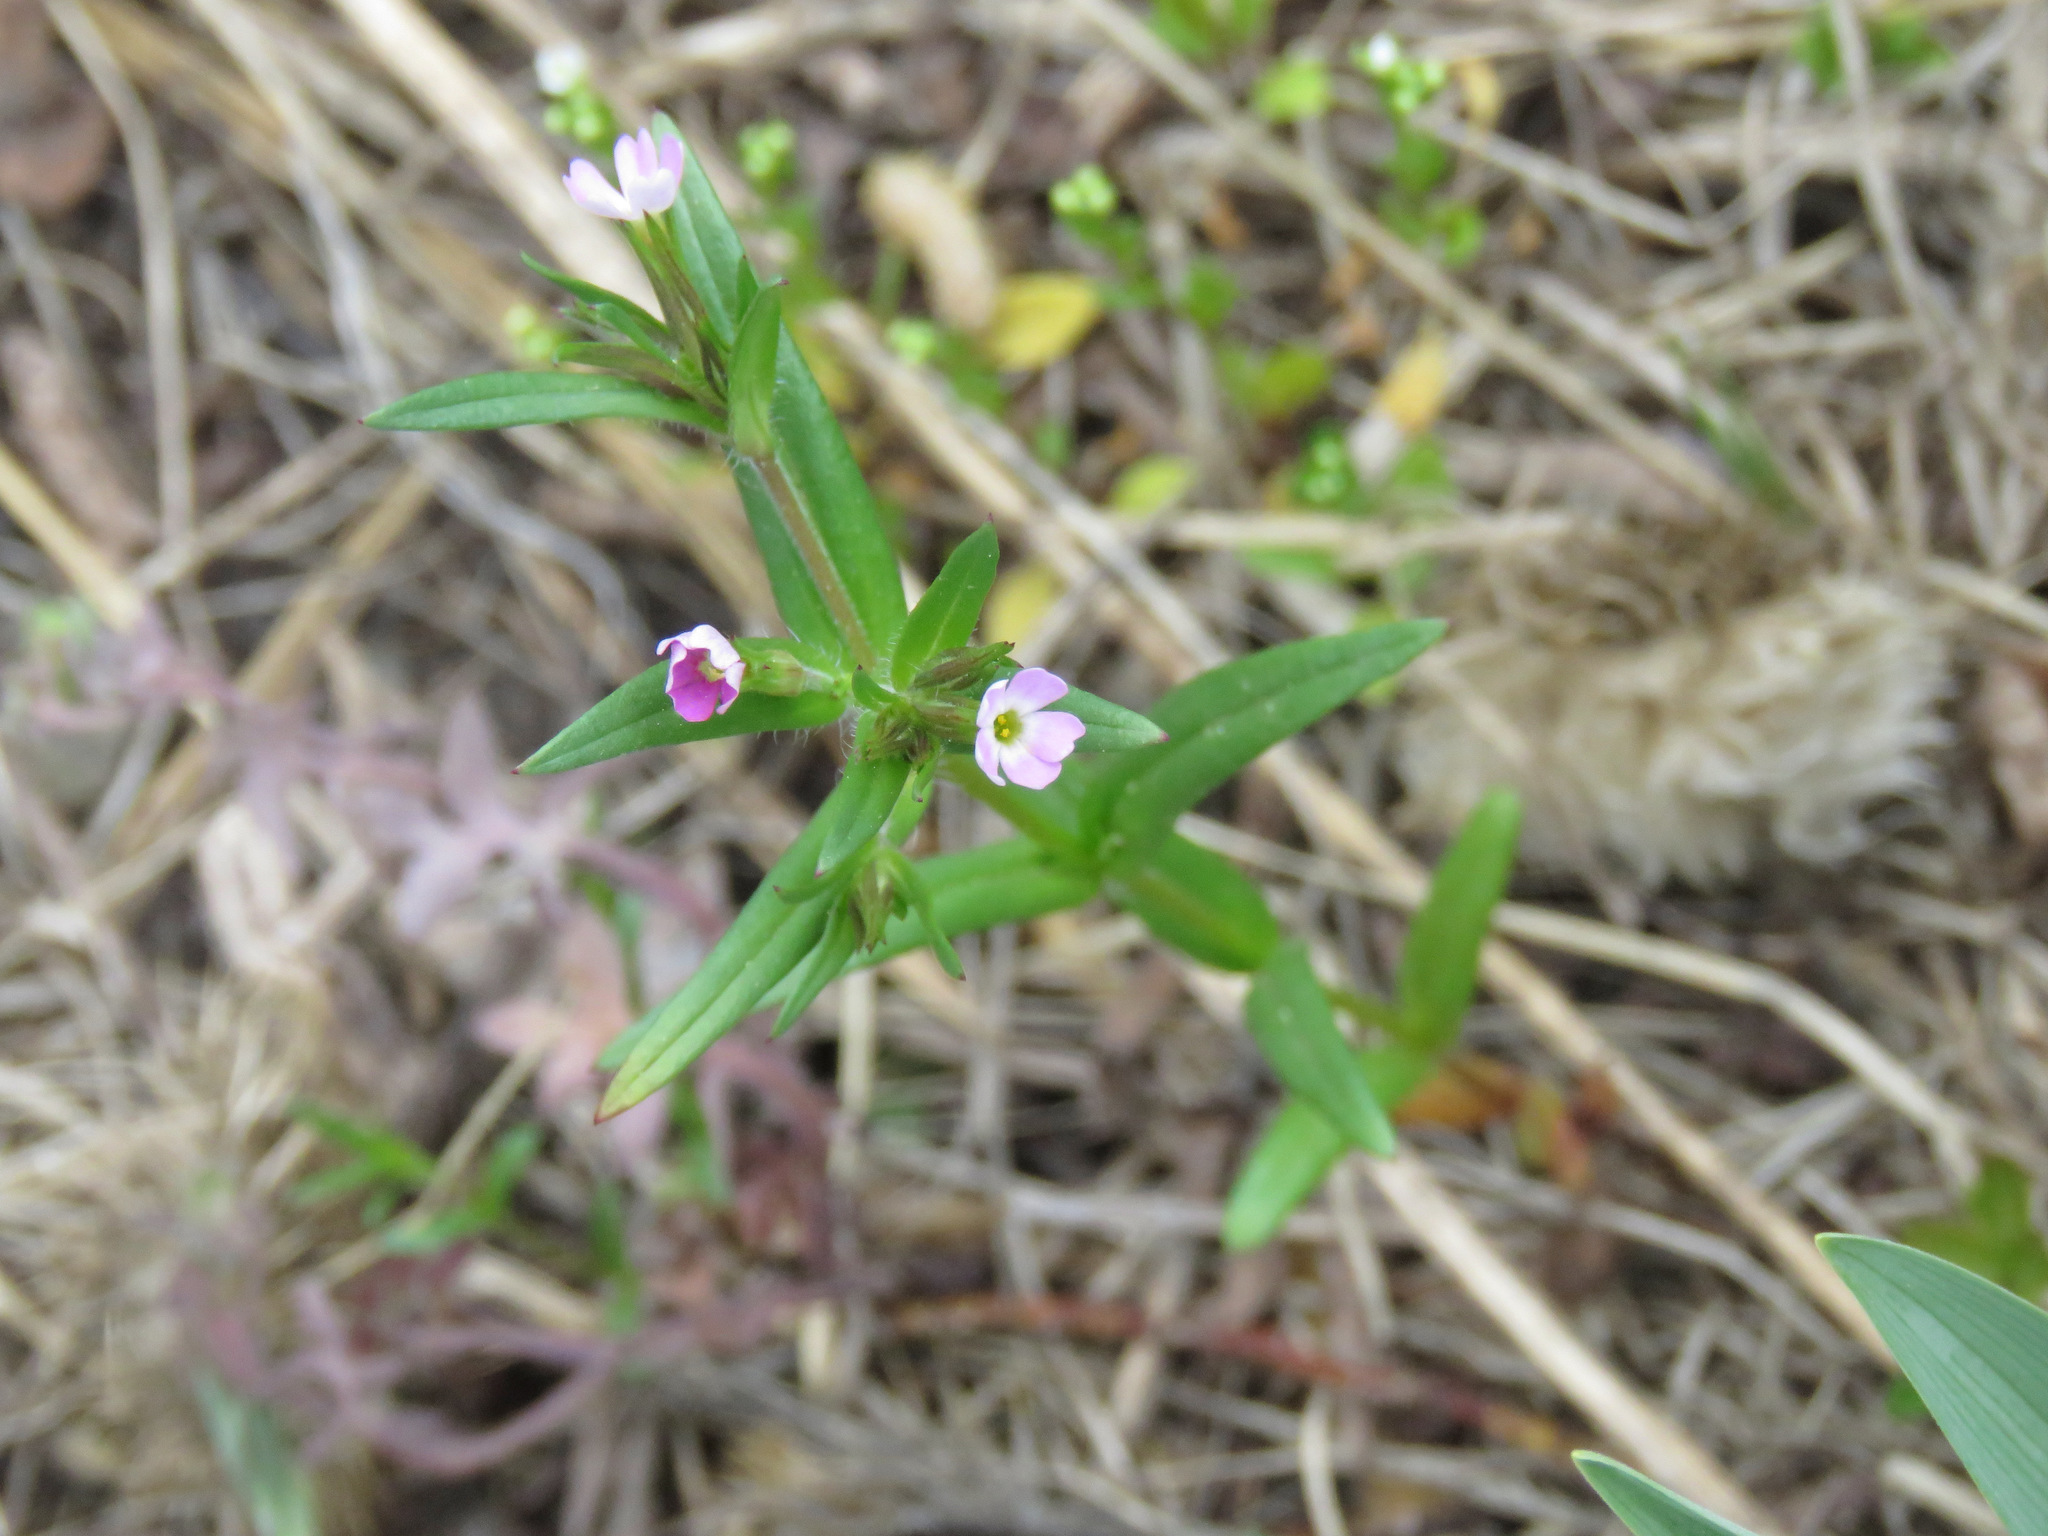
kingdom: Plantae
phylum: Tracheophyta
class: Magnoliopsida
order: Ericales
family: Polemoniaceae
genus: Phlox
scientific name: Phlox gracilis
